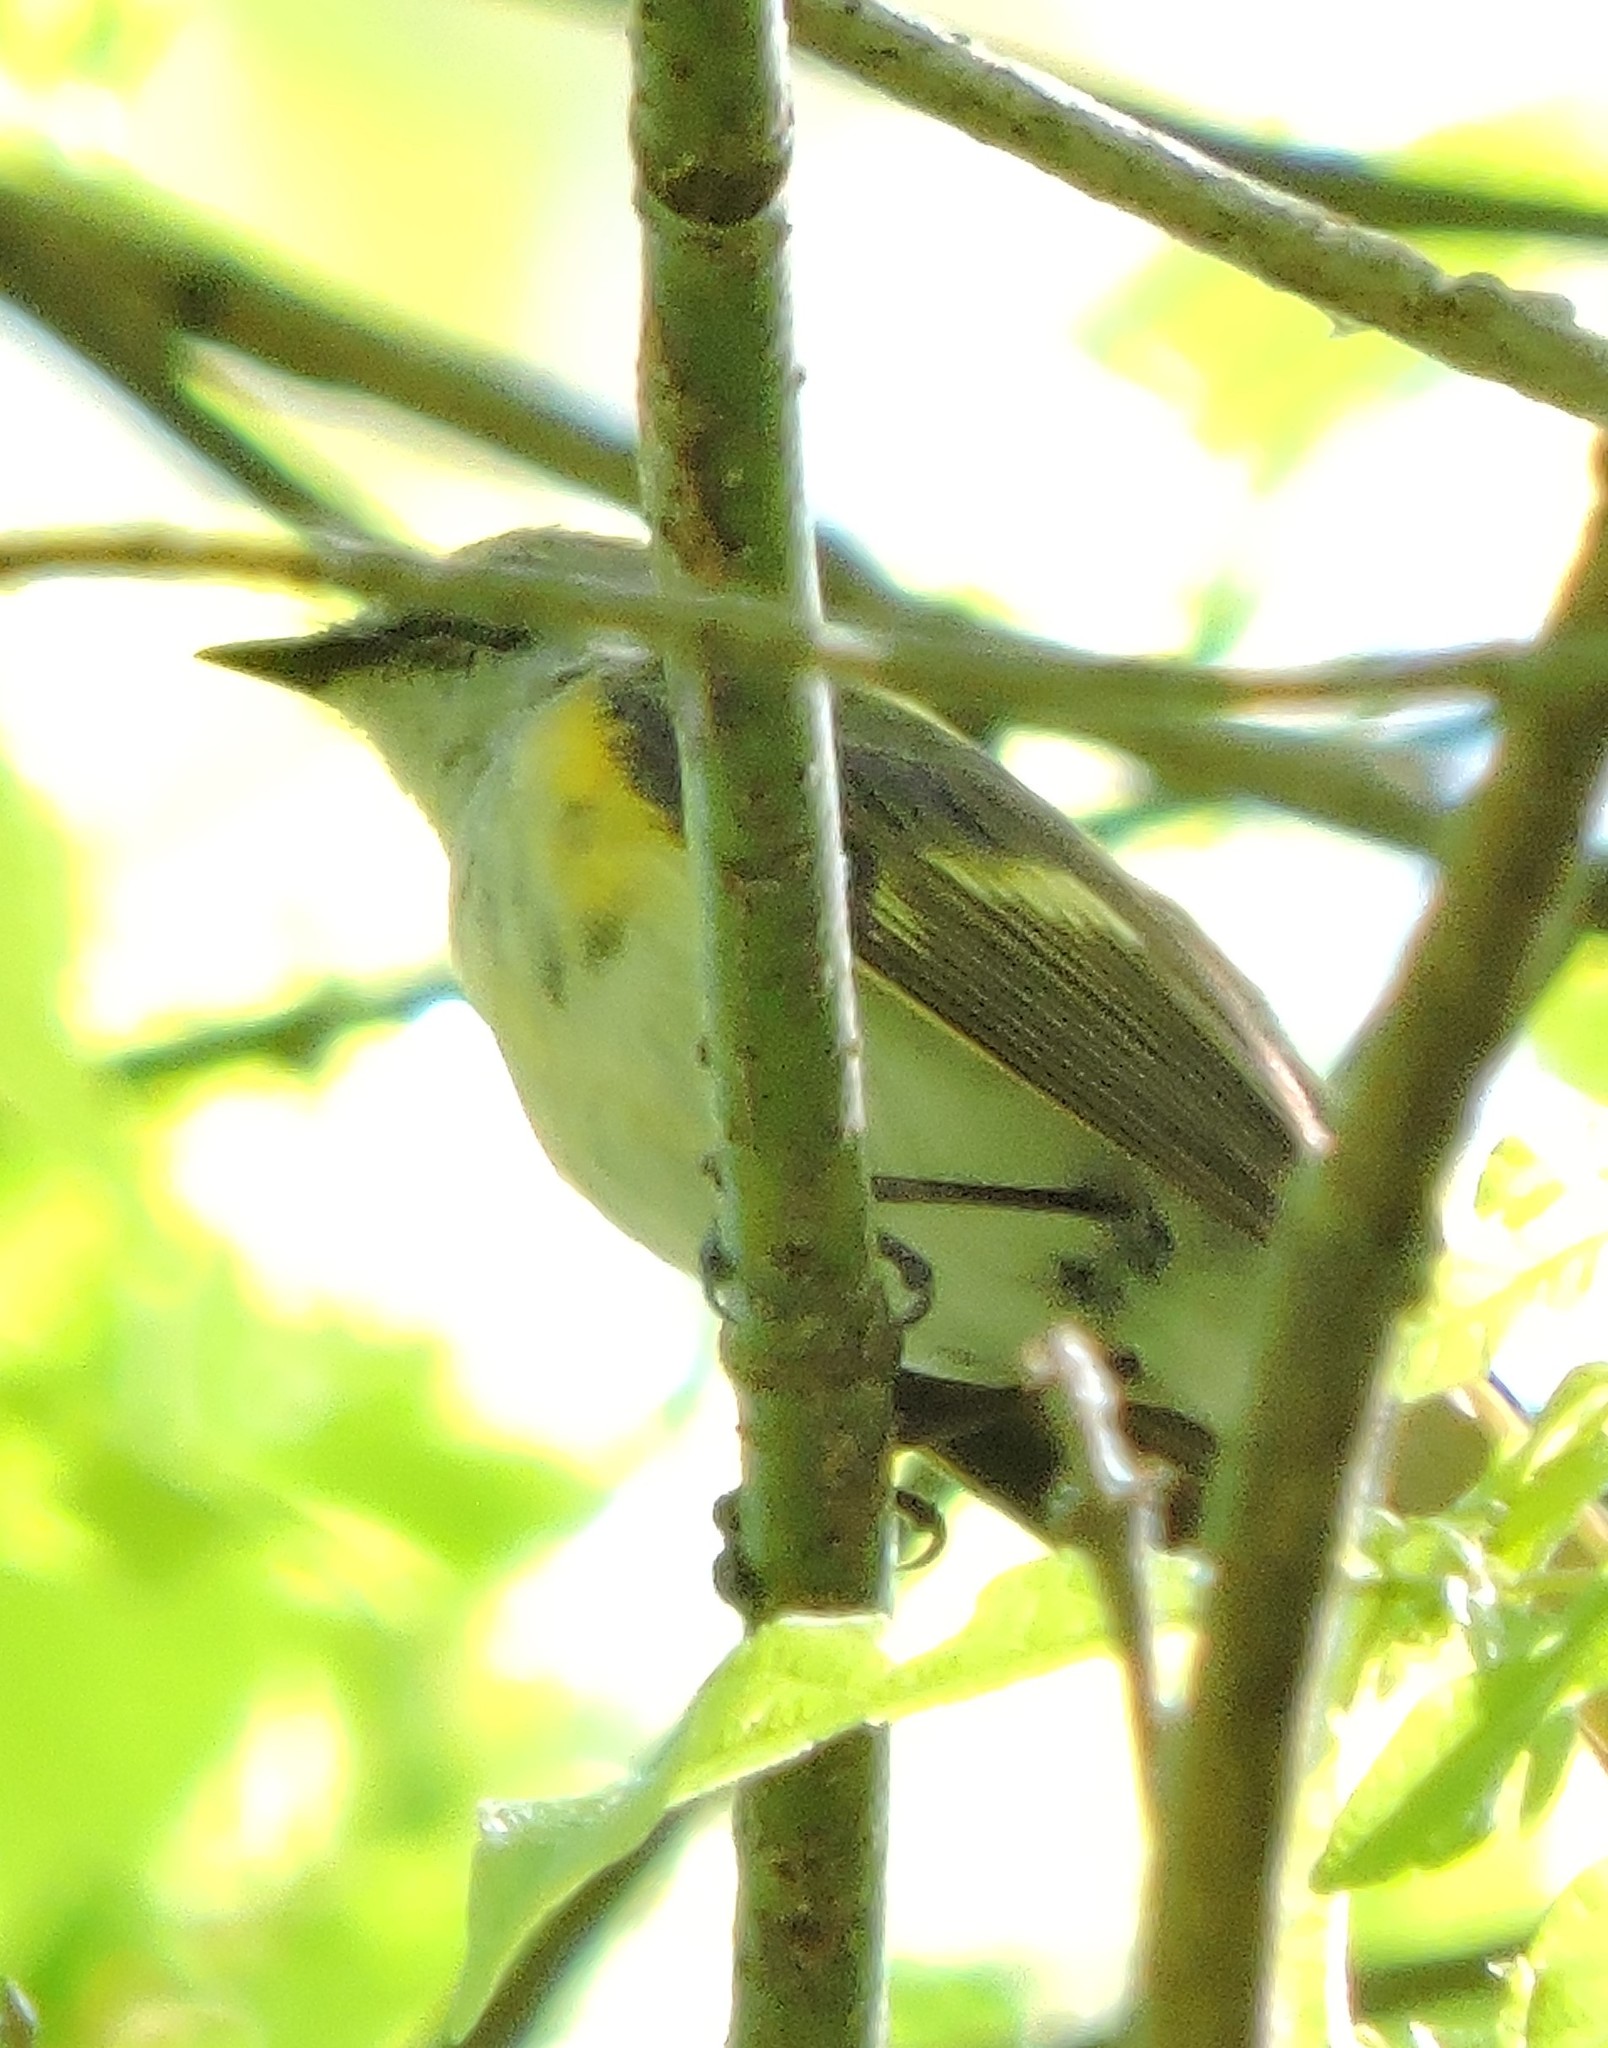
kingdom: Animalia
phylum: Chordata
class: Aves
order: Passeriformes
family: Parulidae
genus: Setophaga
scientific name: Setophaga ruticilla
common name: American redstart
